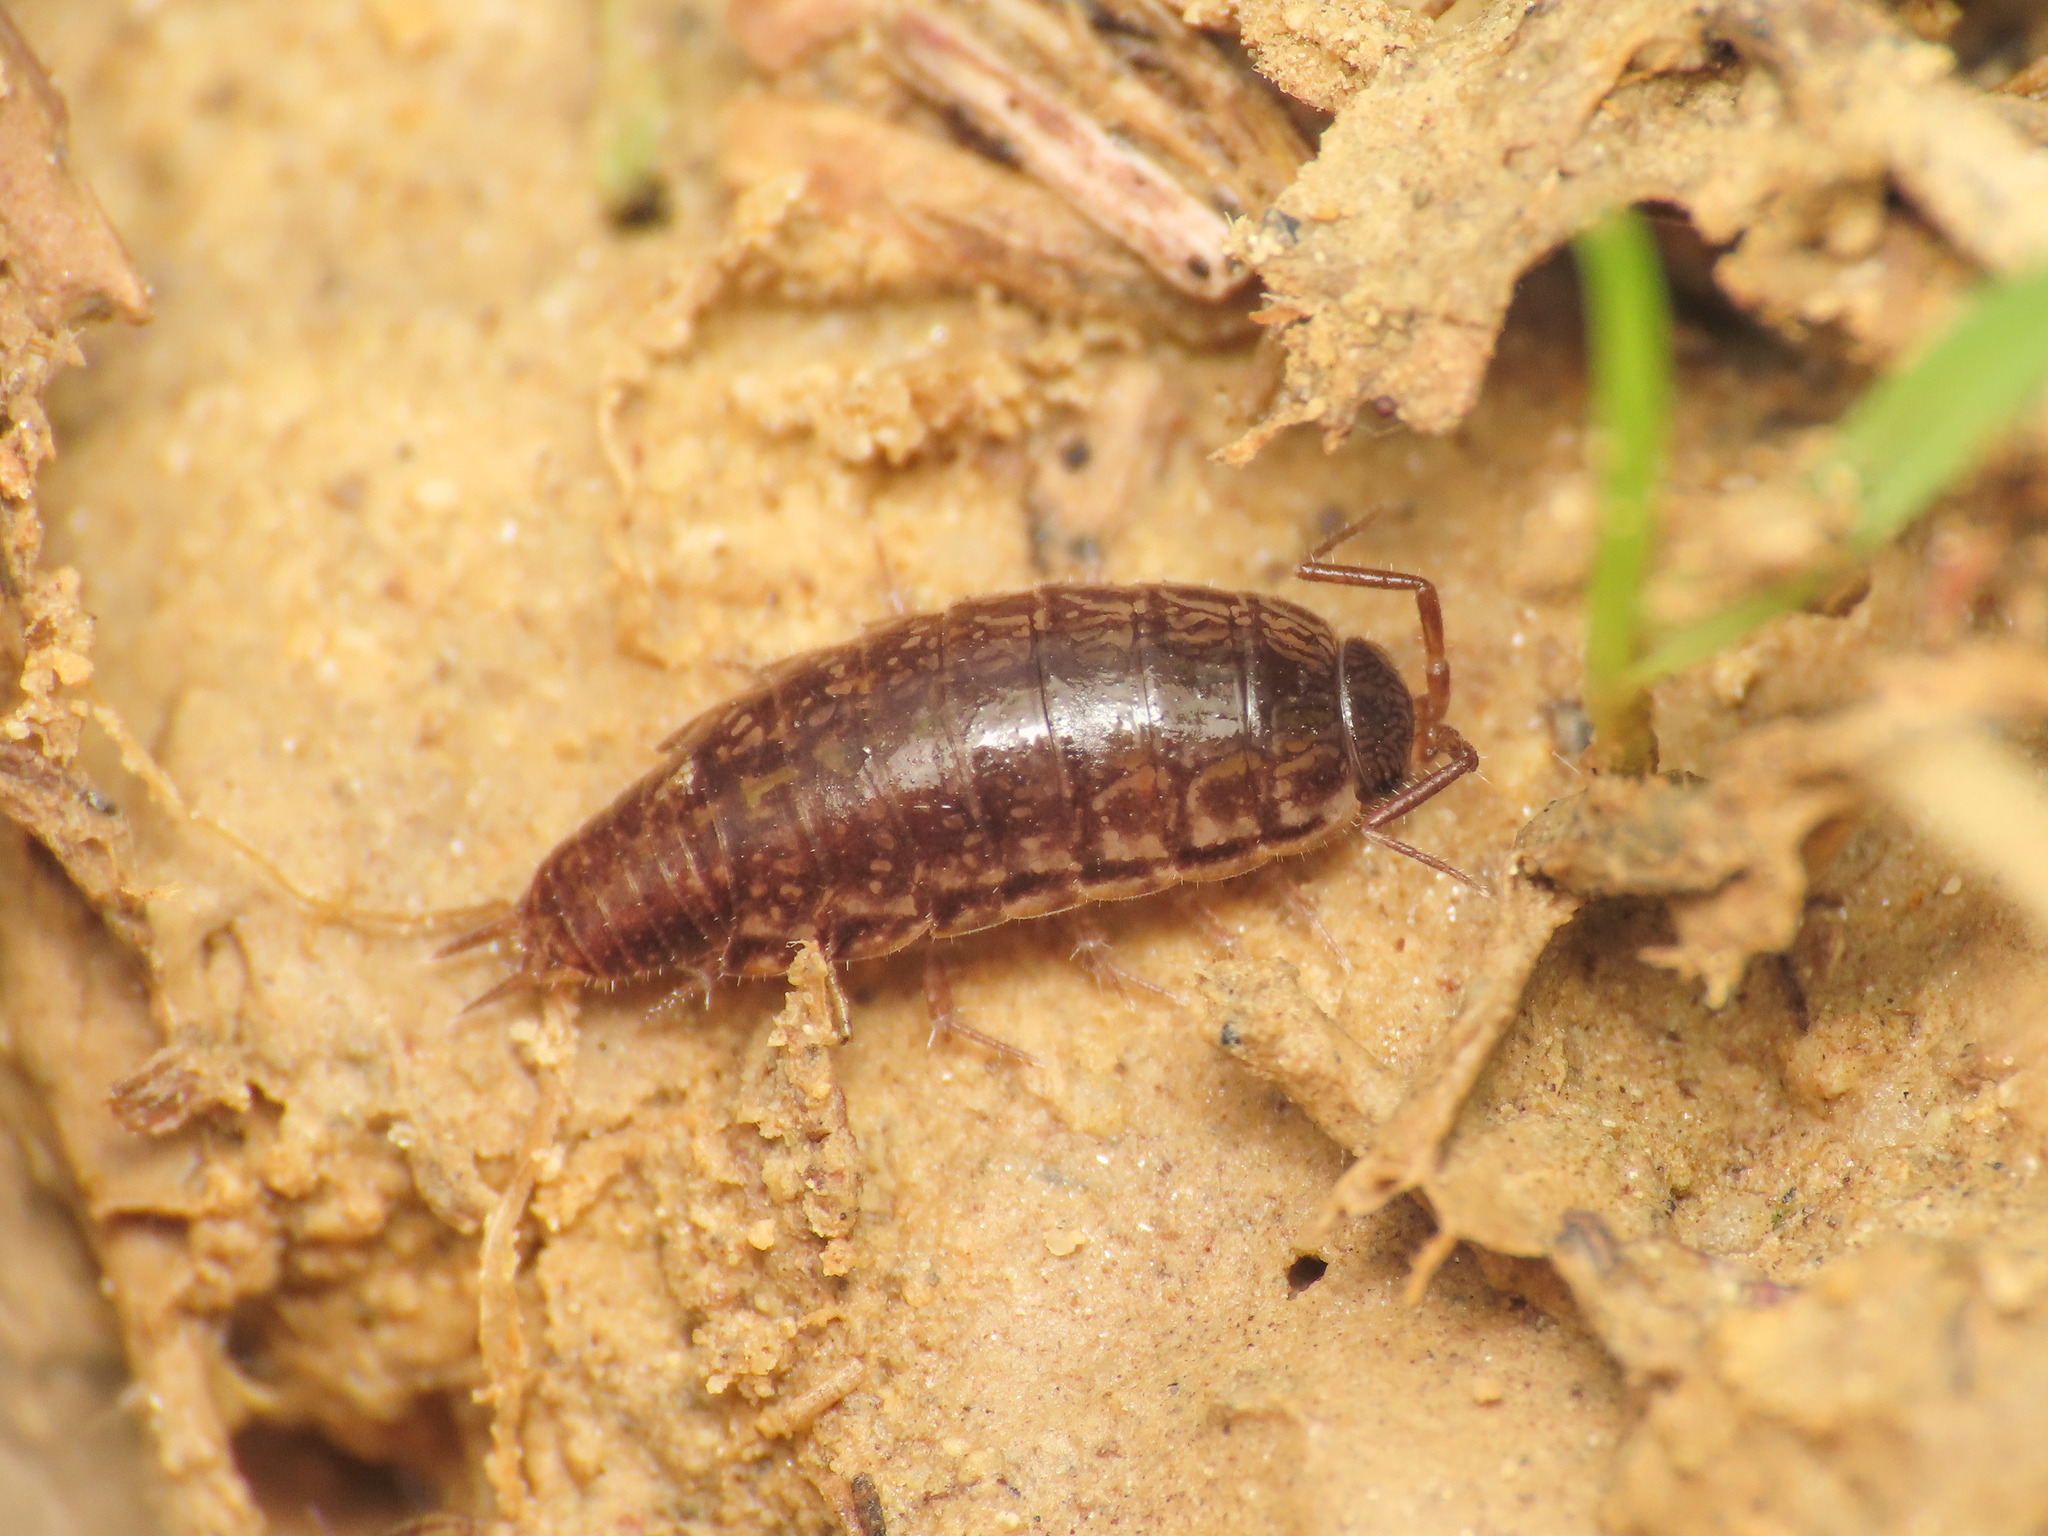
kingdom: Animalia
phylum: Arthropoda
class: Malacostraca
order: Isopoda
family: Philosciidae
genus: Chaetophiloscia
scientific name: Chaetophiloscia elongata
